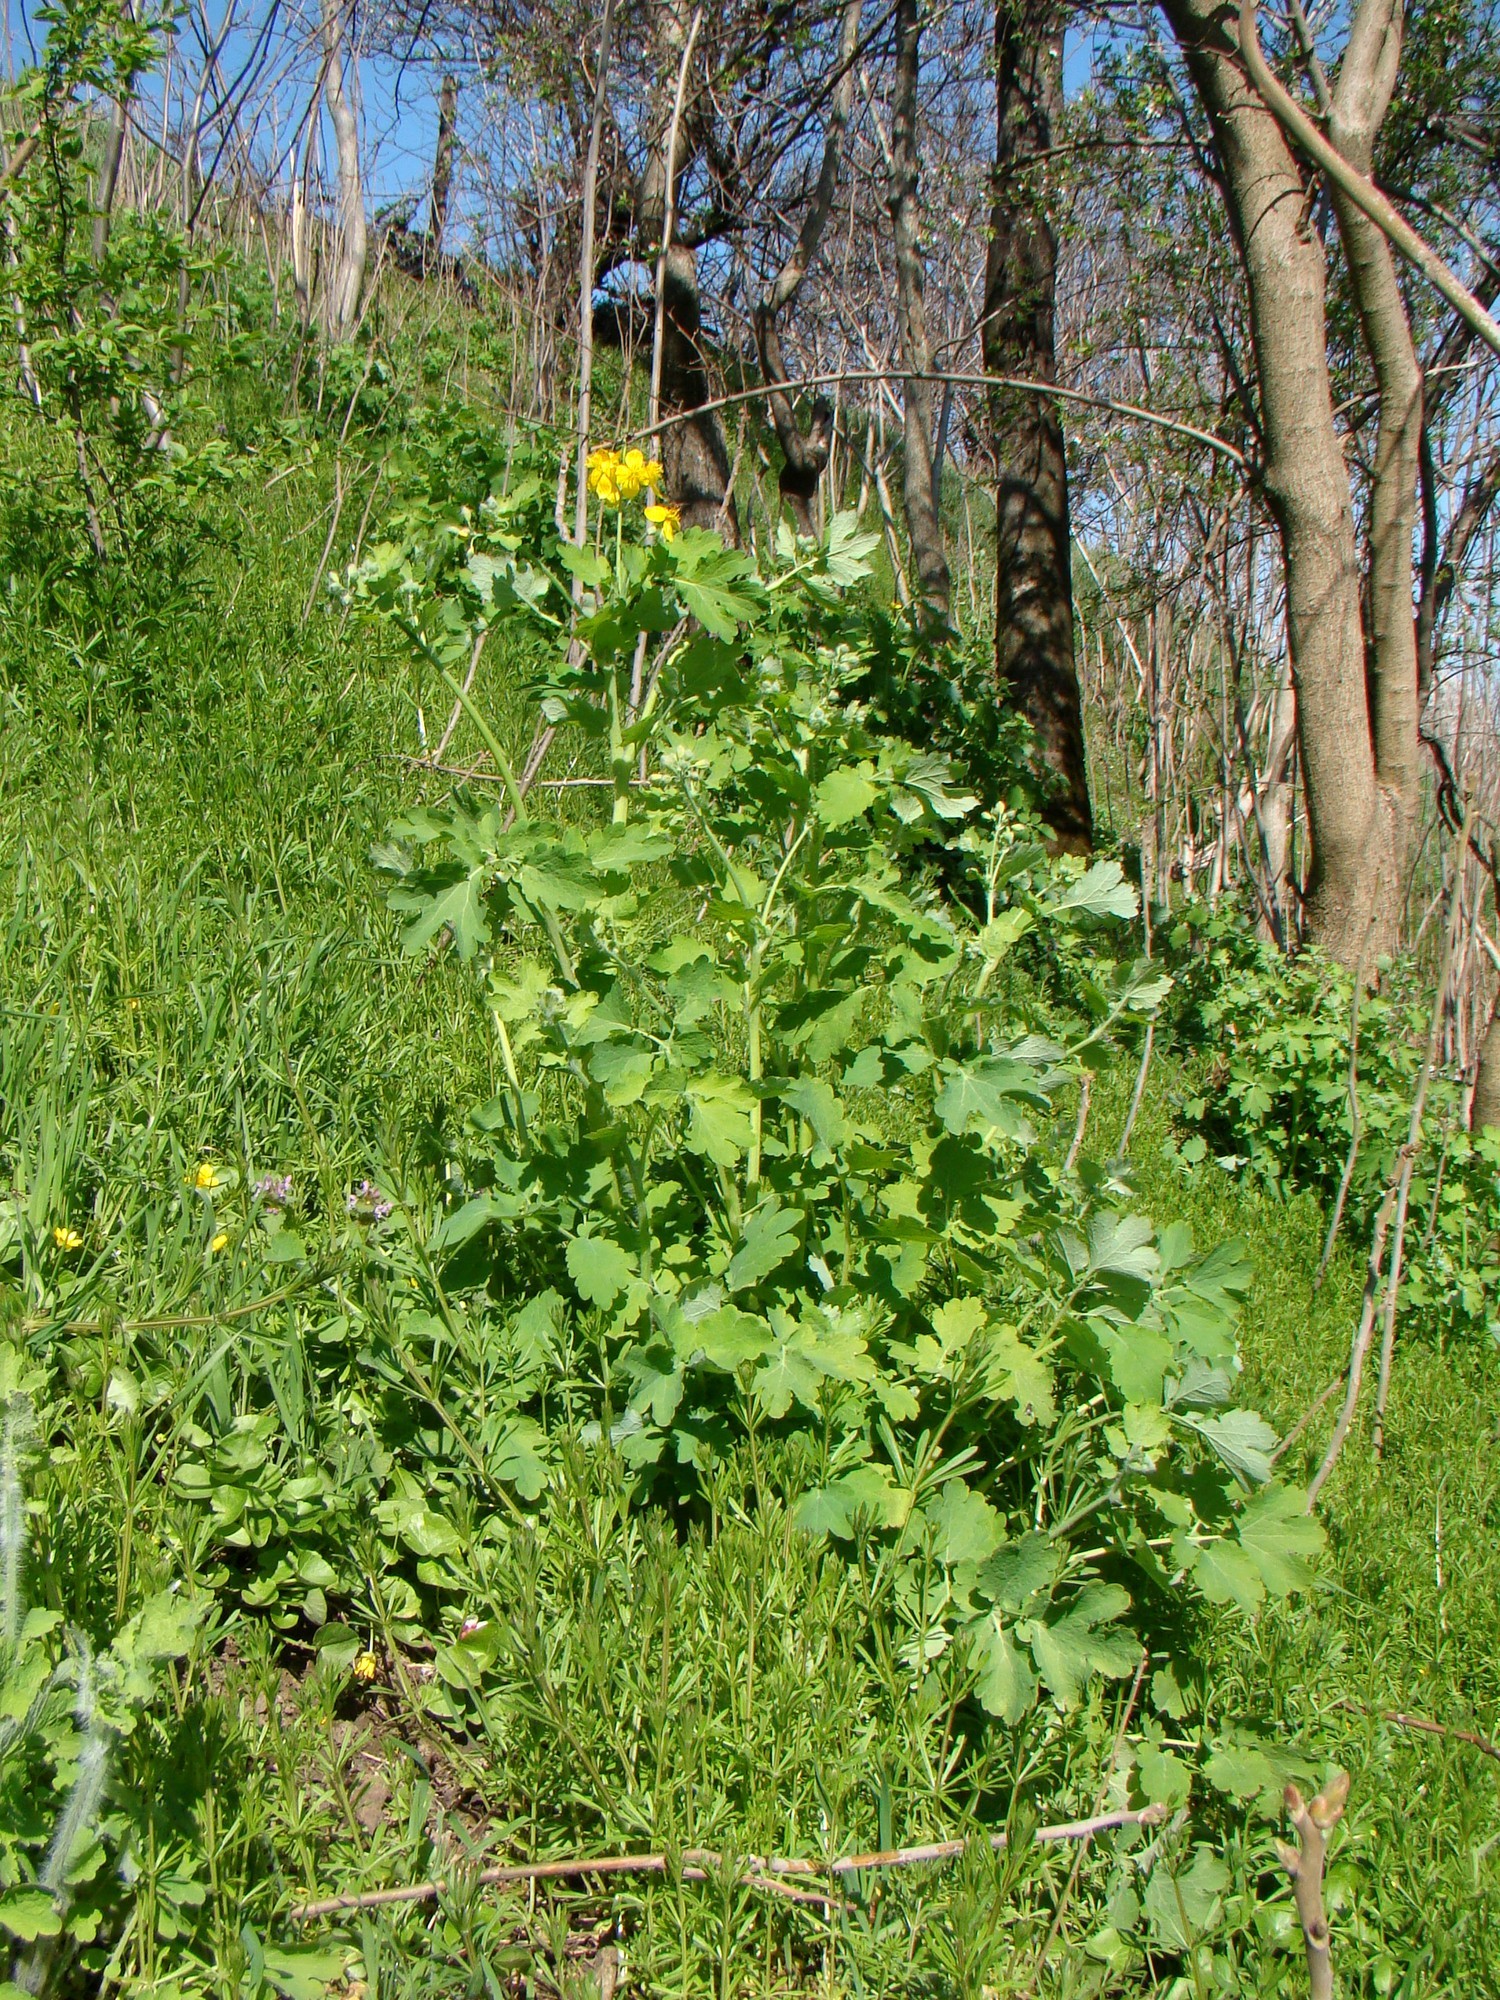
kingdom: Plantae
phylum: Tracheophyta
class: Magnoliopsida
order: Ranunculales
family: Papaveraceae
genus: Chelidonium
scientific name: Chelidonium majus
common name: Greater celandine
